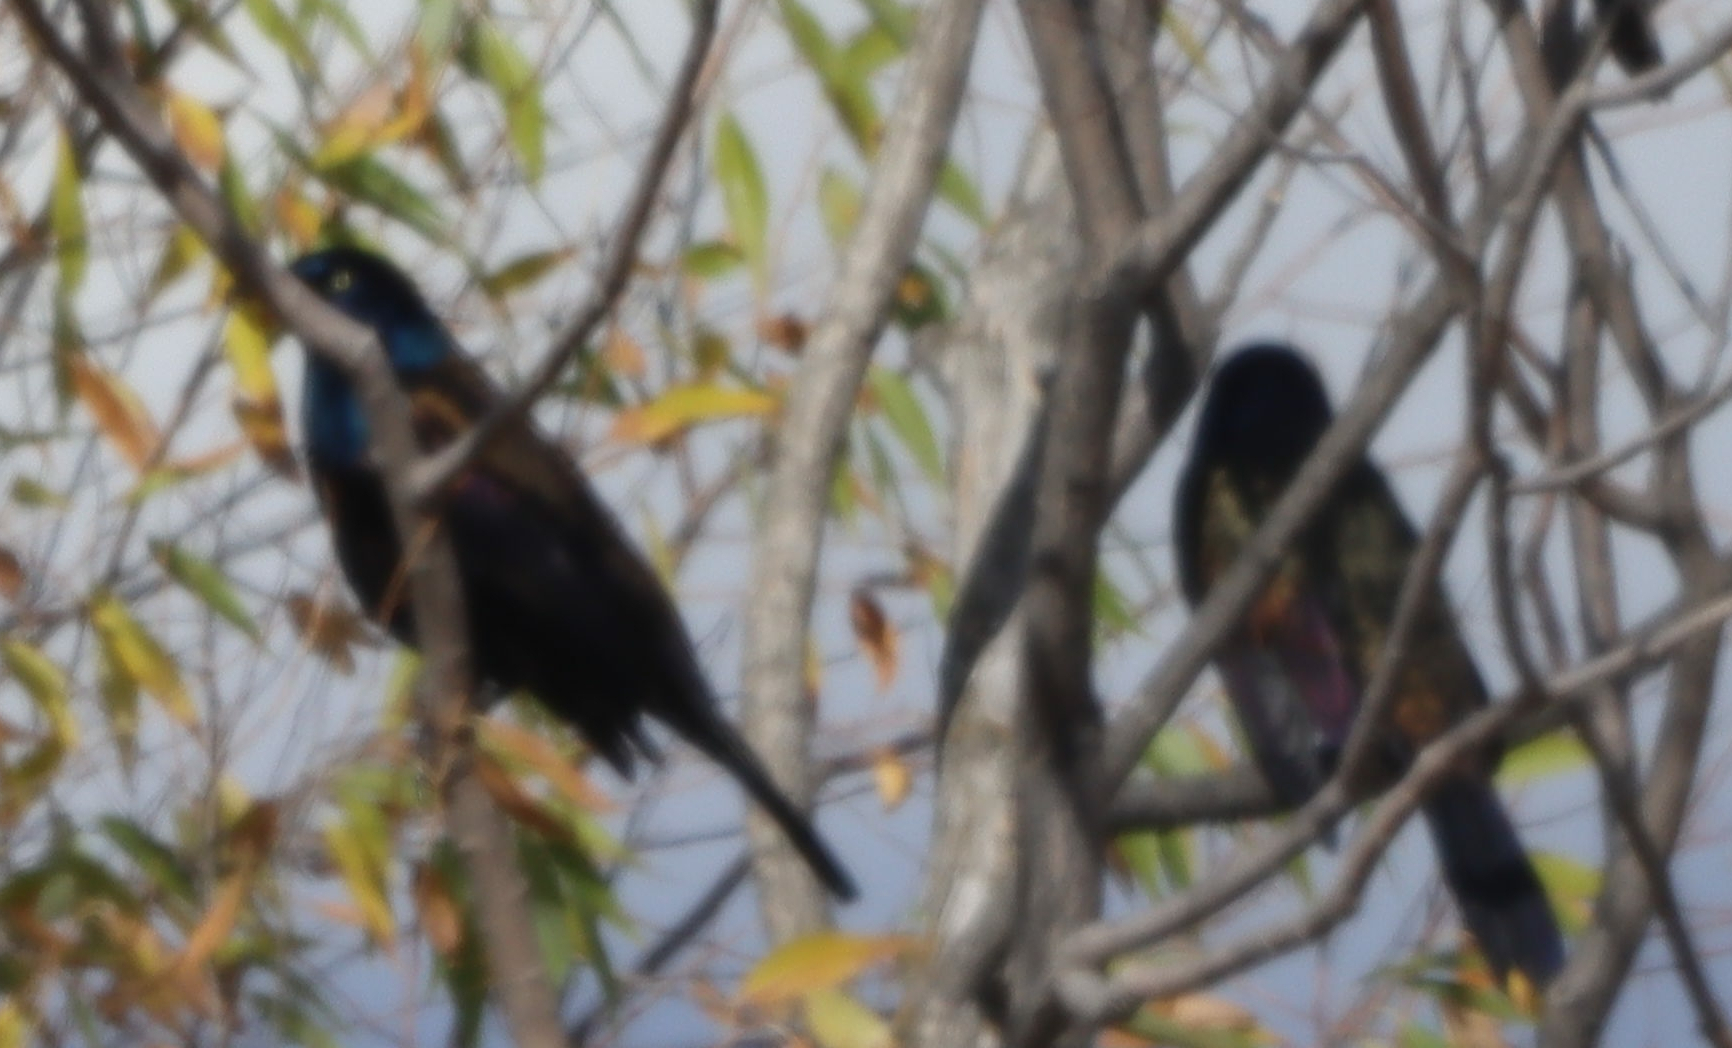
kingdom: Animalia
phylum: Chordata
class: Aves
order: Passeriformes
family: Icteridae
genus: Quiscalus
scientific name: Quiscalus quiscula
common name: Common grackle
